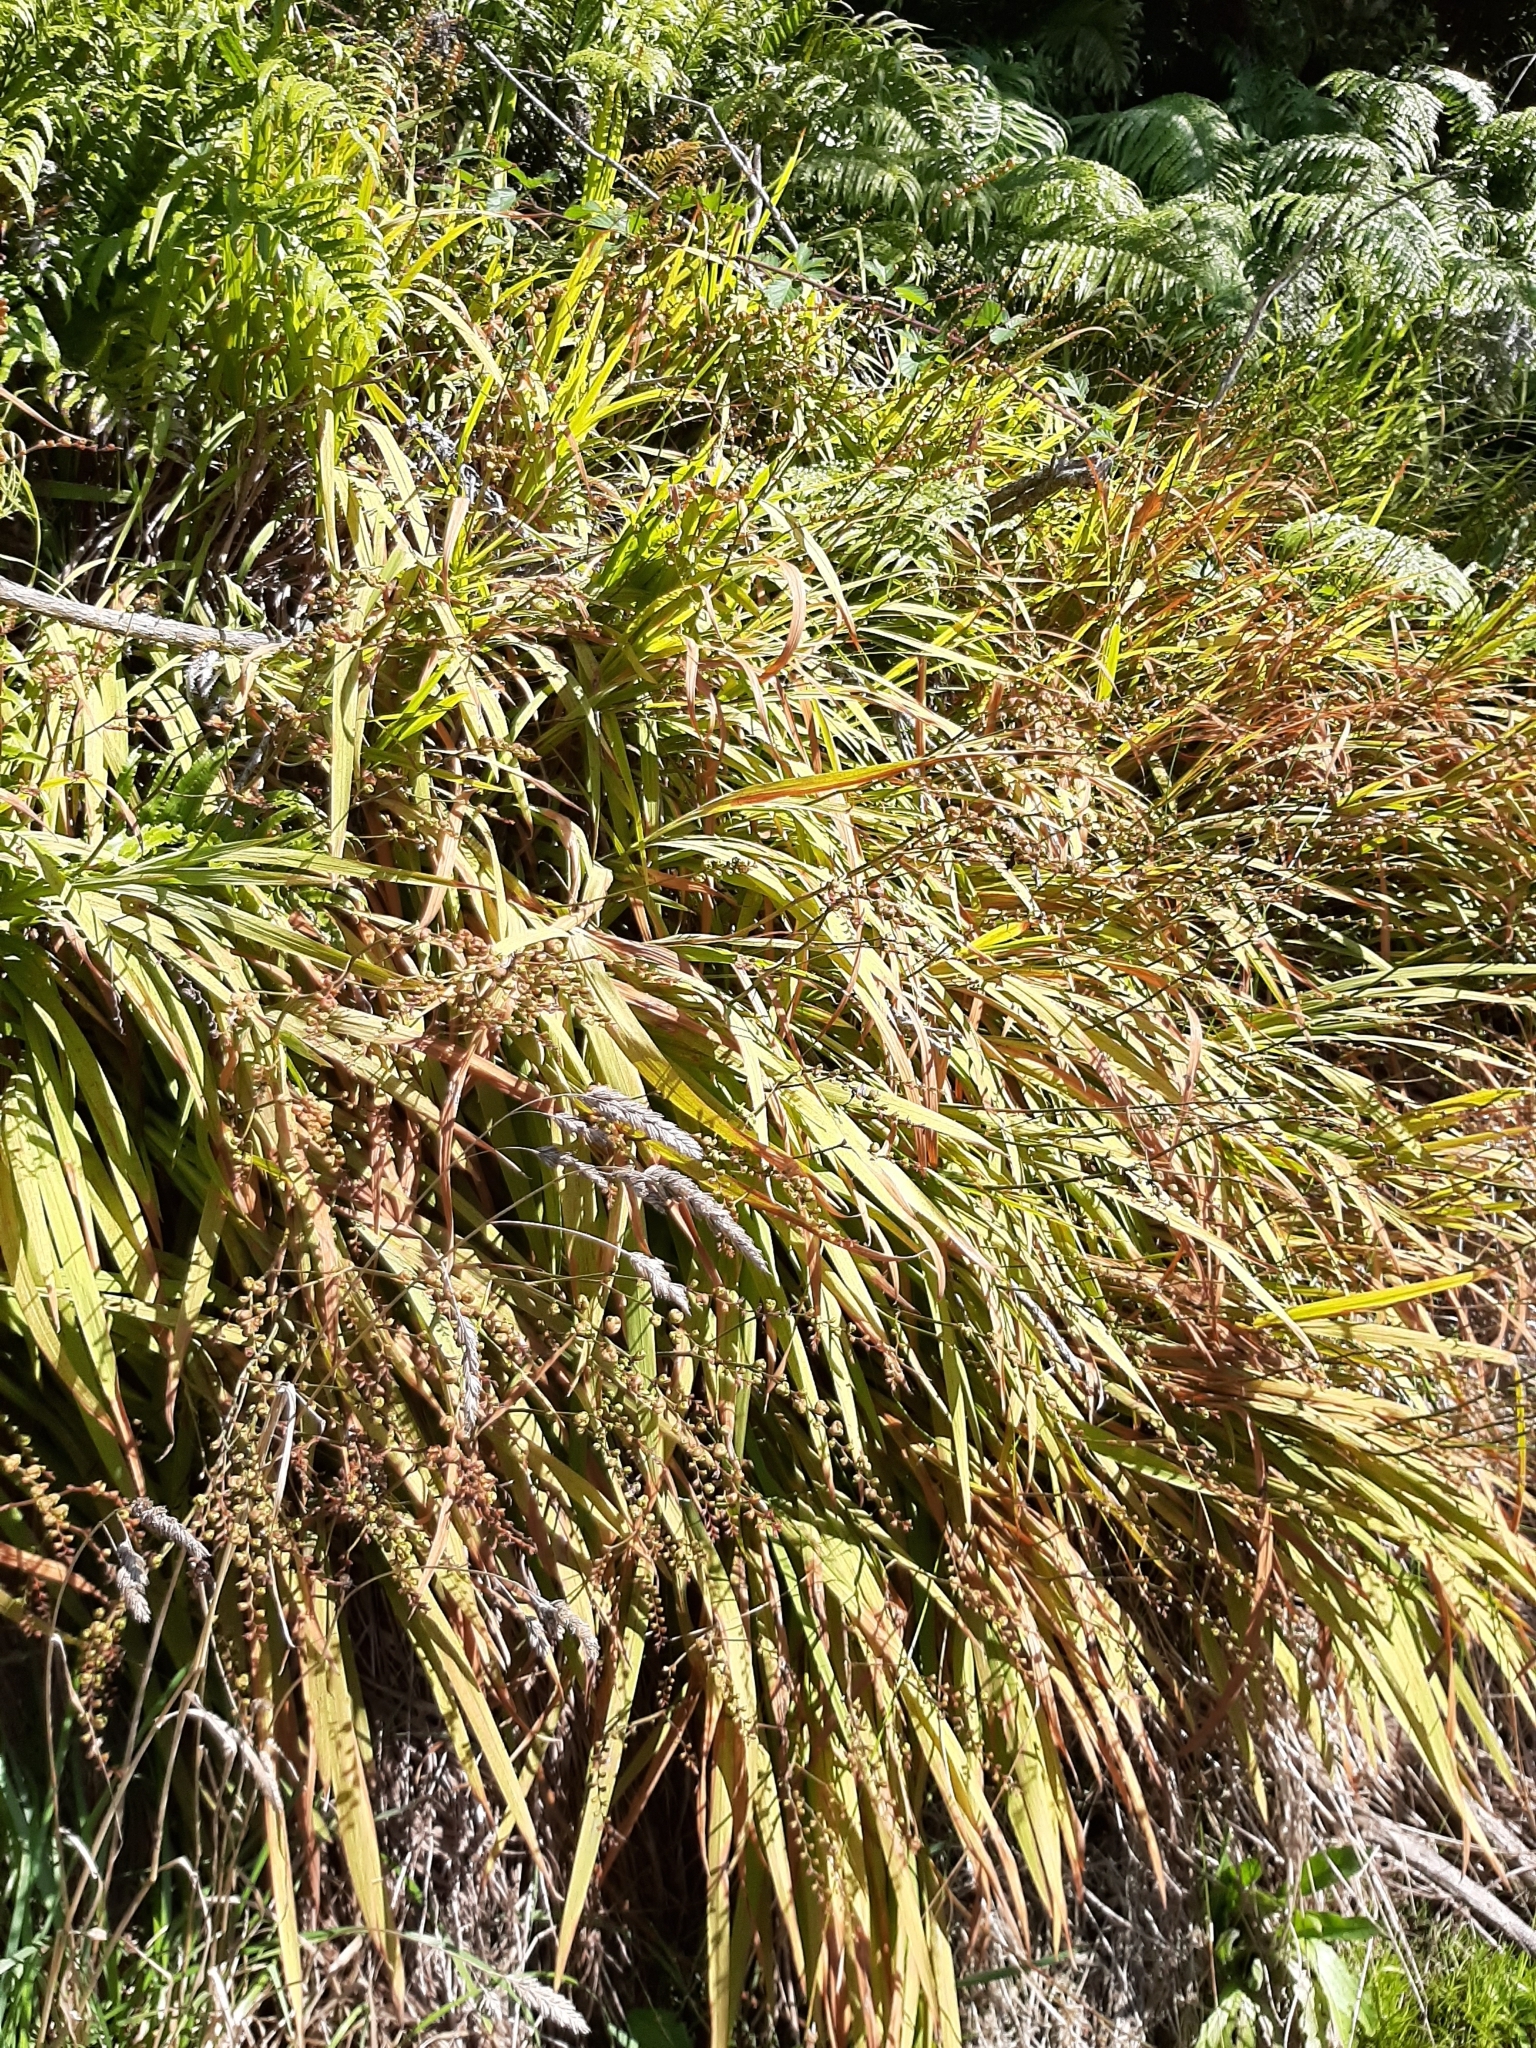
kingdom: Plantae
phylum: Tracheophyta
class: Liliopsida
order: Asparagales
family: Iridaceae
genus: Crocosmia
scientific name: Crocosmia crocosmiiflora
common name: Montbretia
